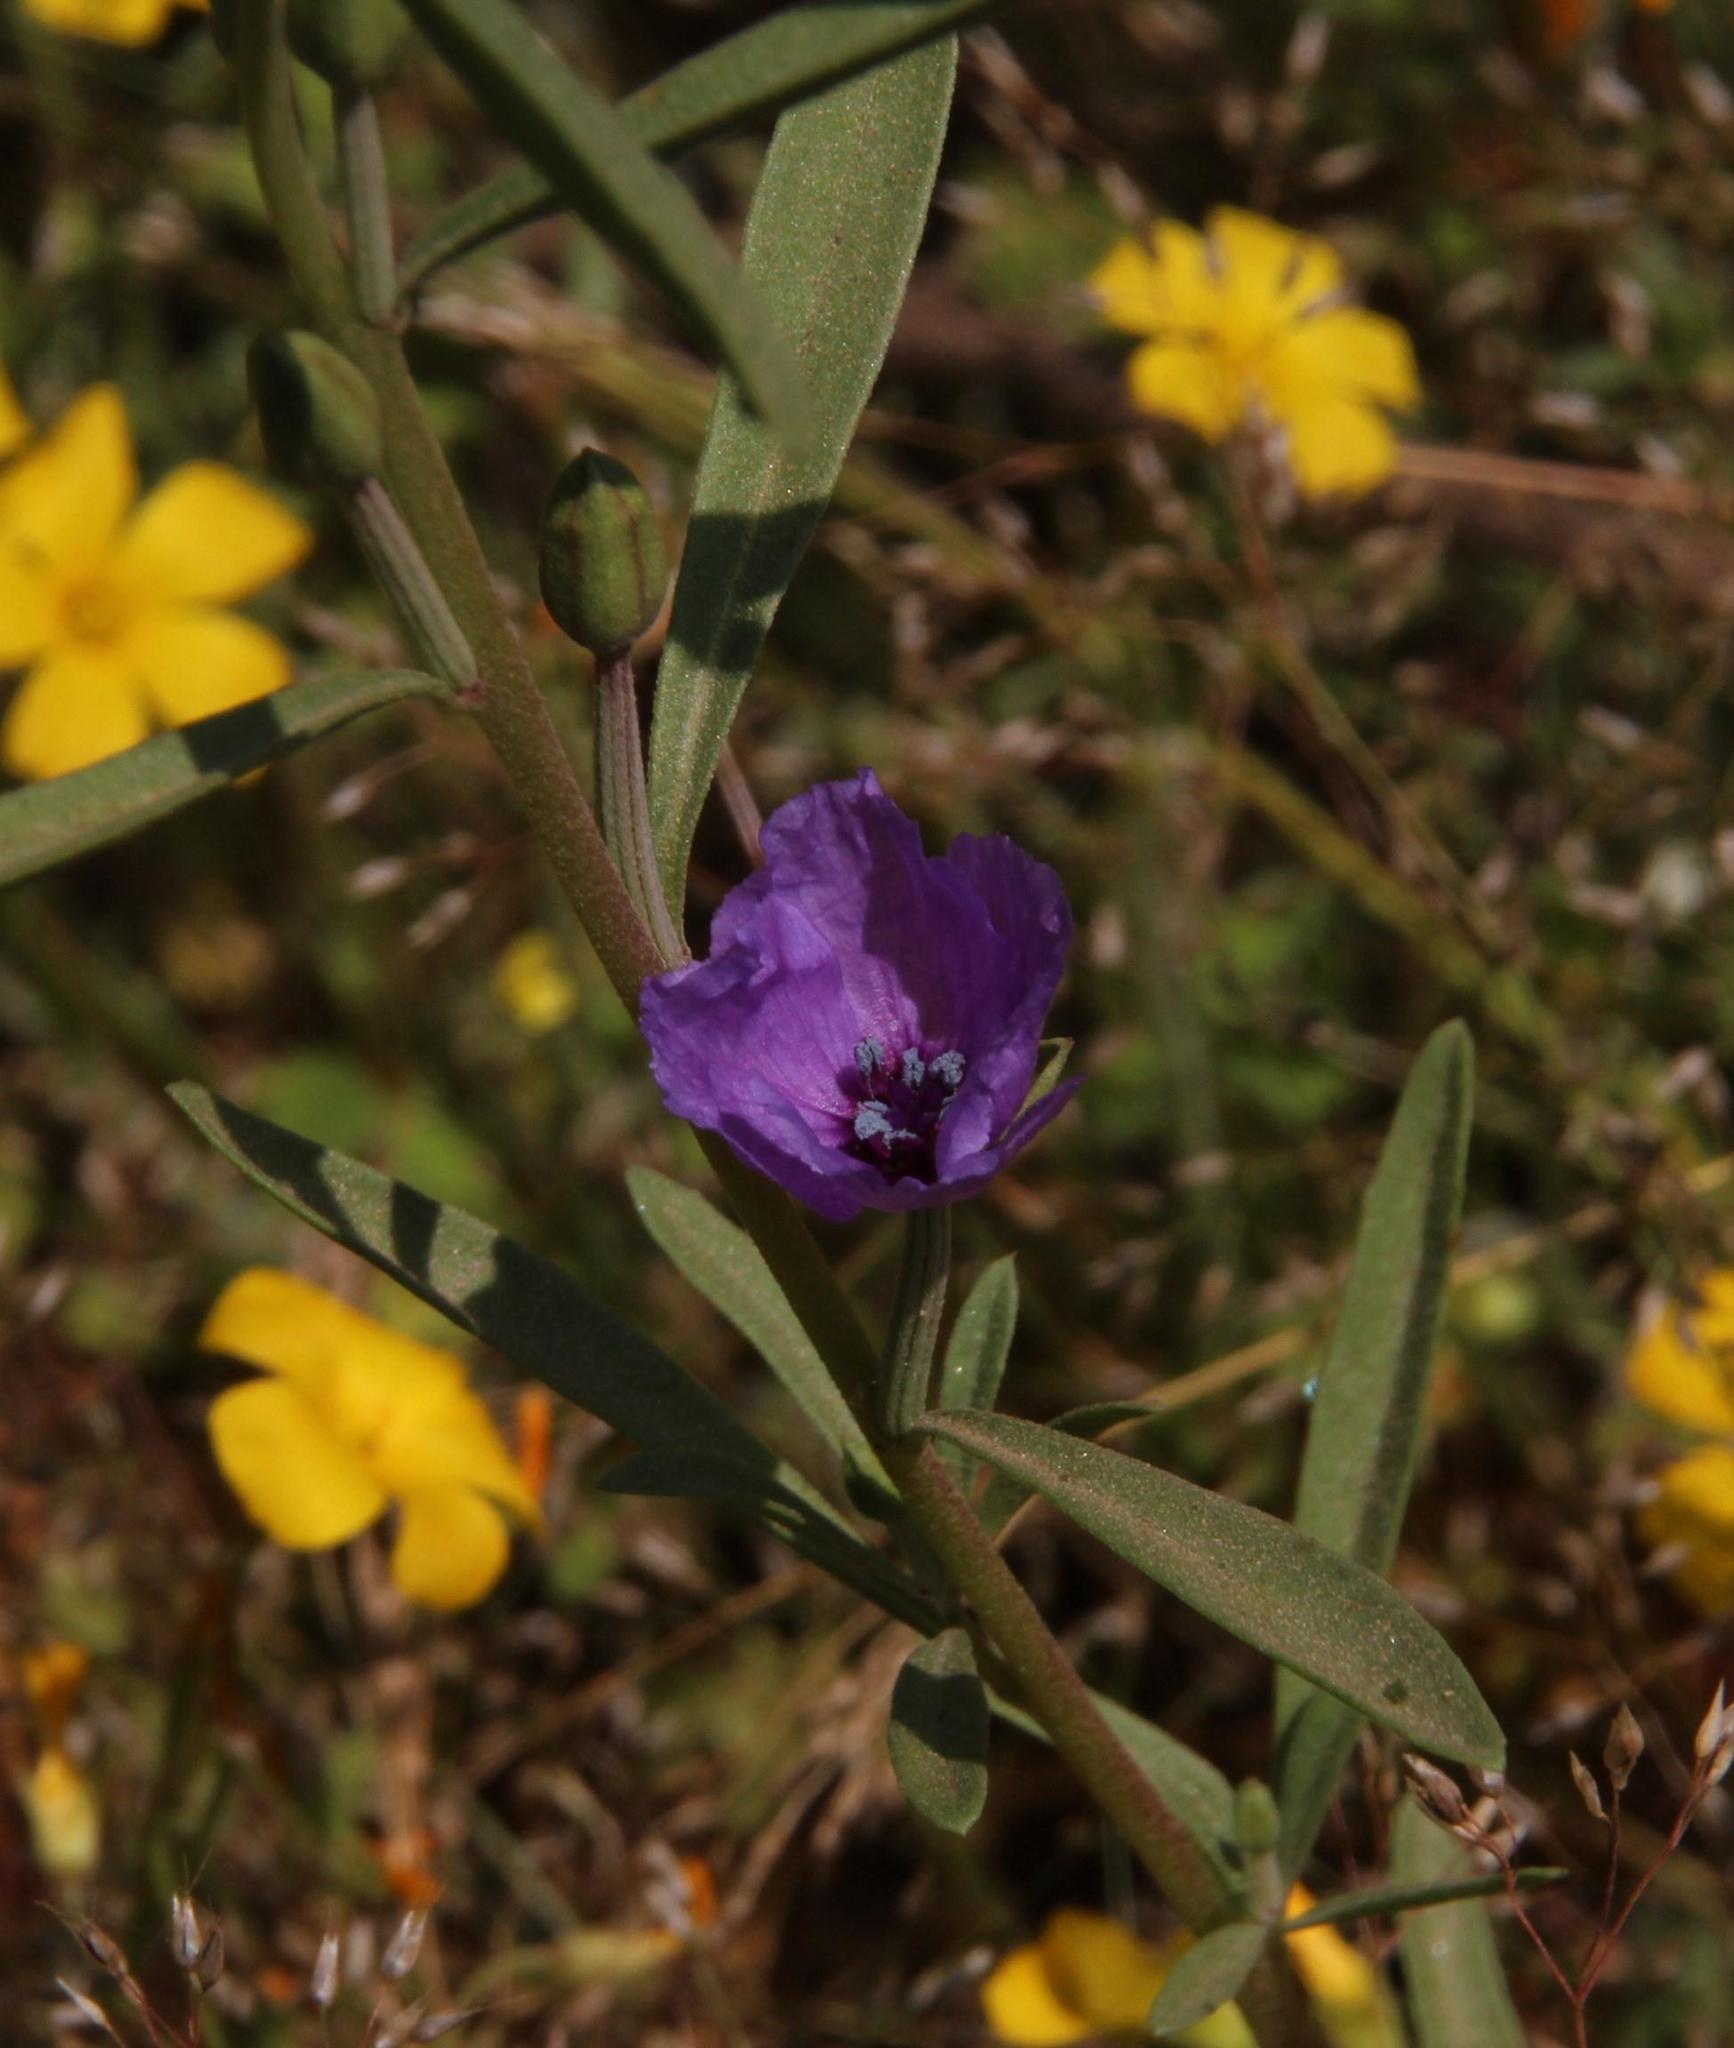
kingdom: Plantae
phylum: Tracheophyta
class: Magnoliopsida
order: Myrtales
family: Onagraceae
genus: Clarkia
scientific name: Clarkia tenella
